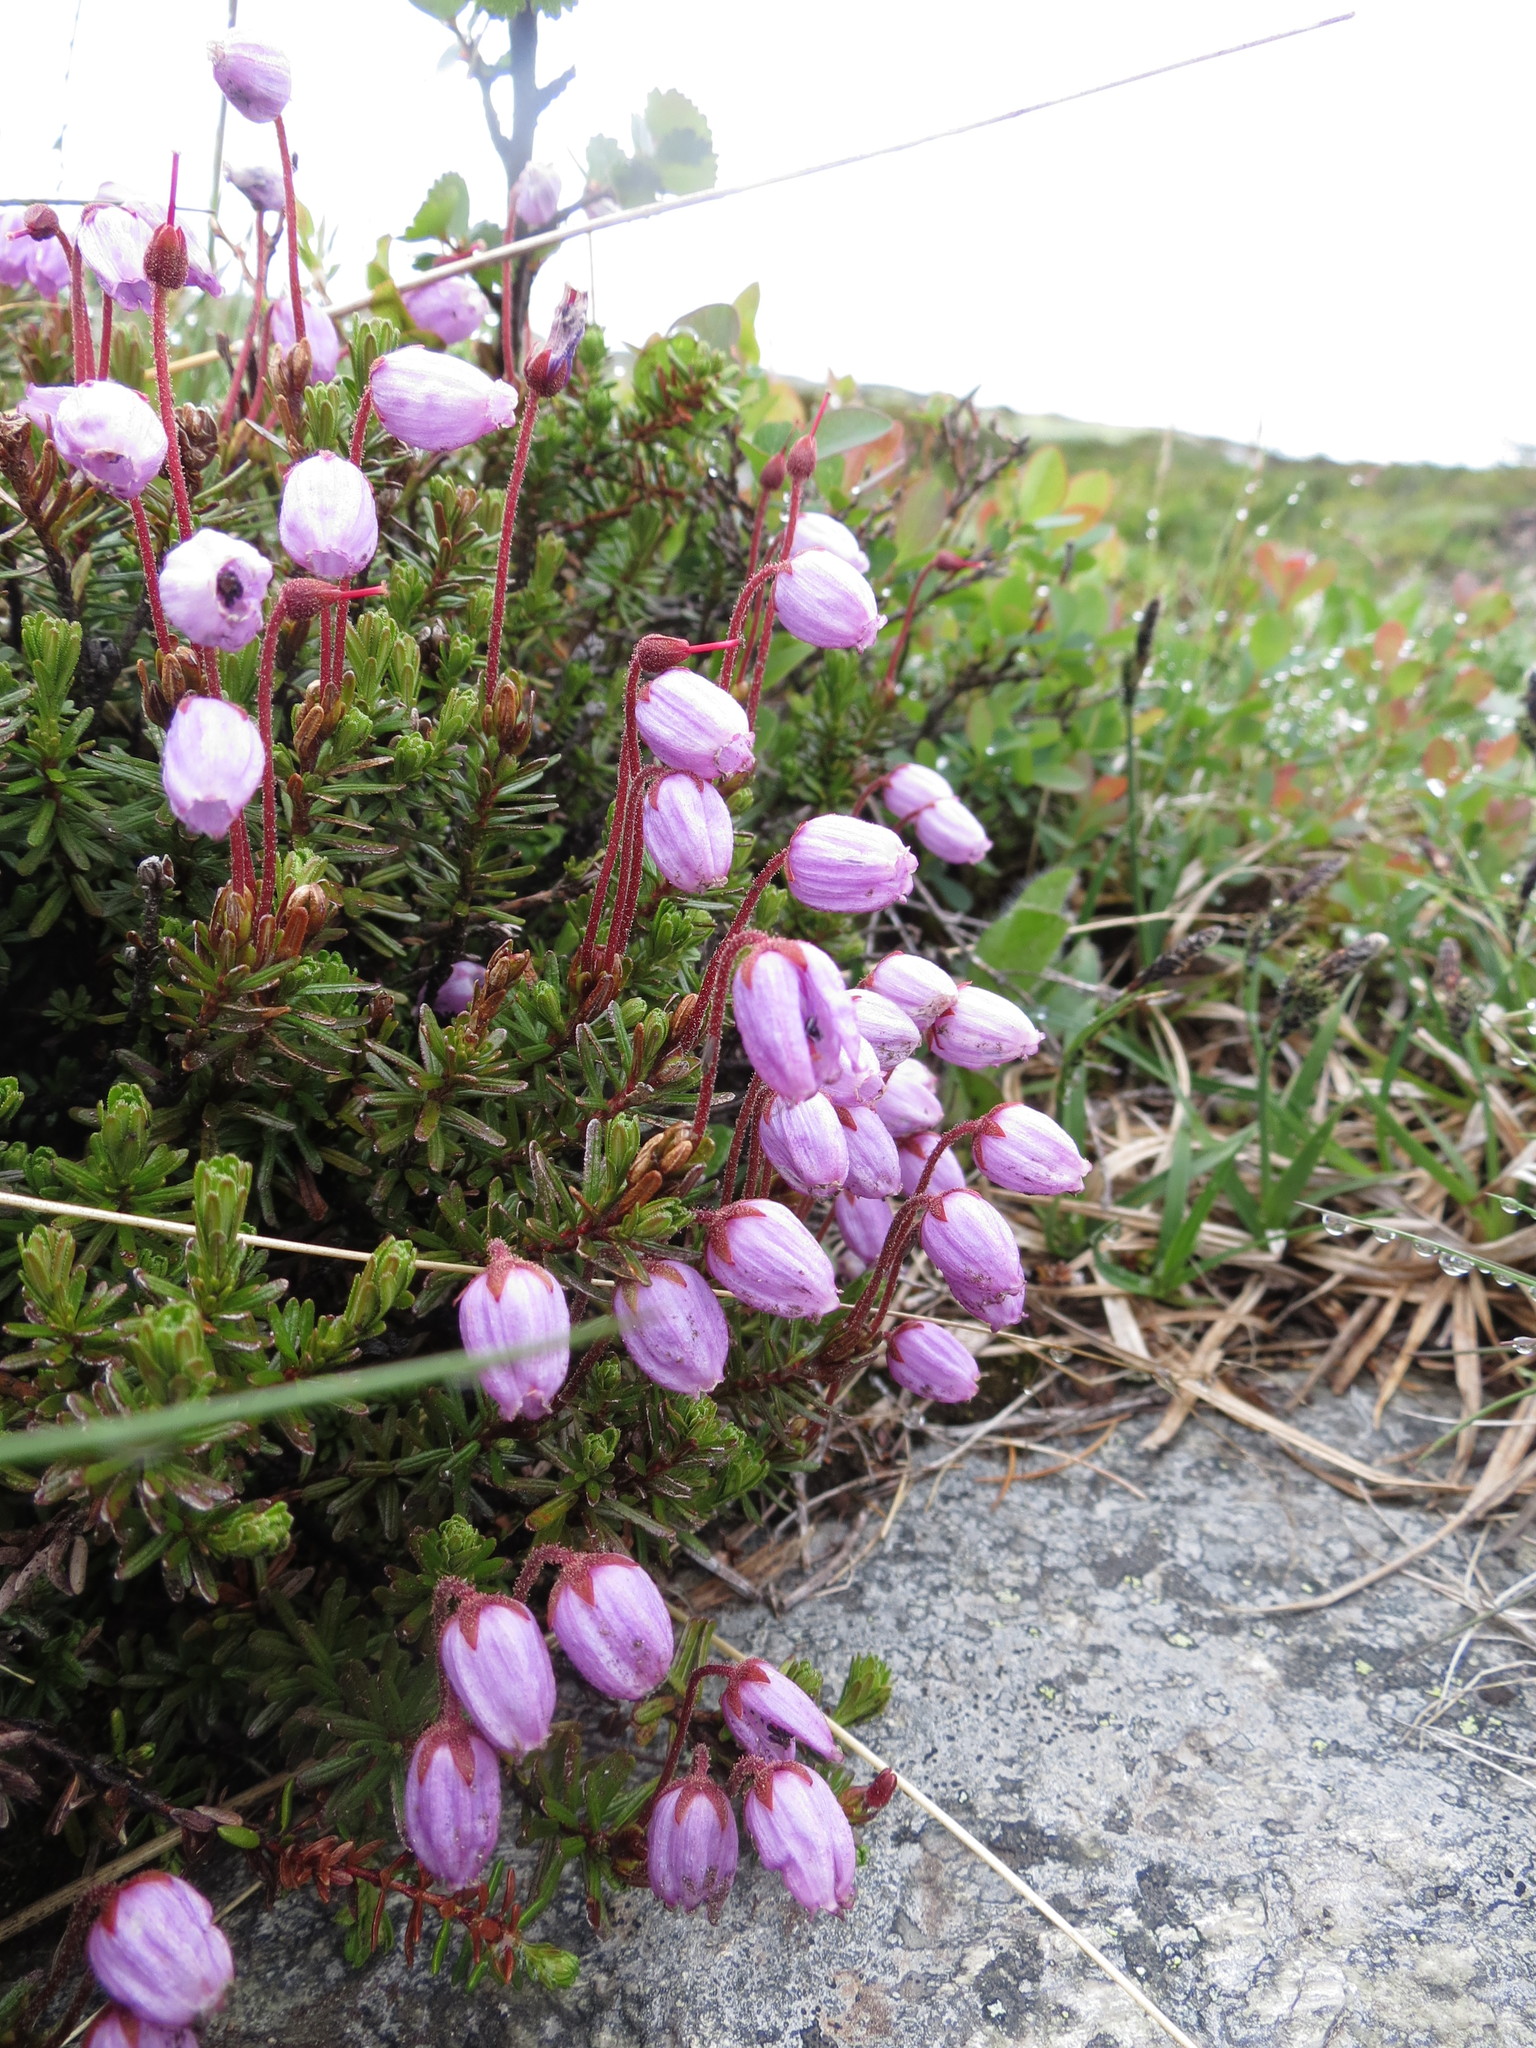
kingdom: Plantae
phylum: Tracheophyta
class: Magnoliopsida
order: Ericales
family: Ericaceae
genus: Phyllodoce
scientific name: Phyllodoce caerulea
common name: Blue heath
